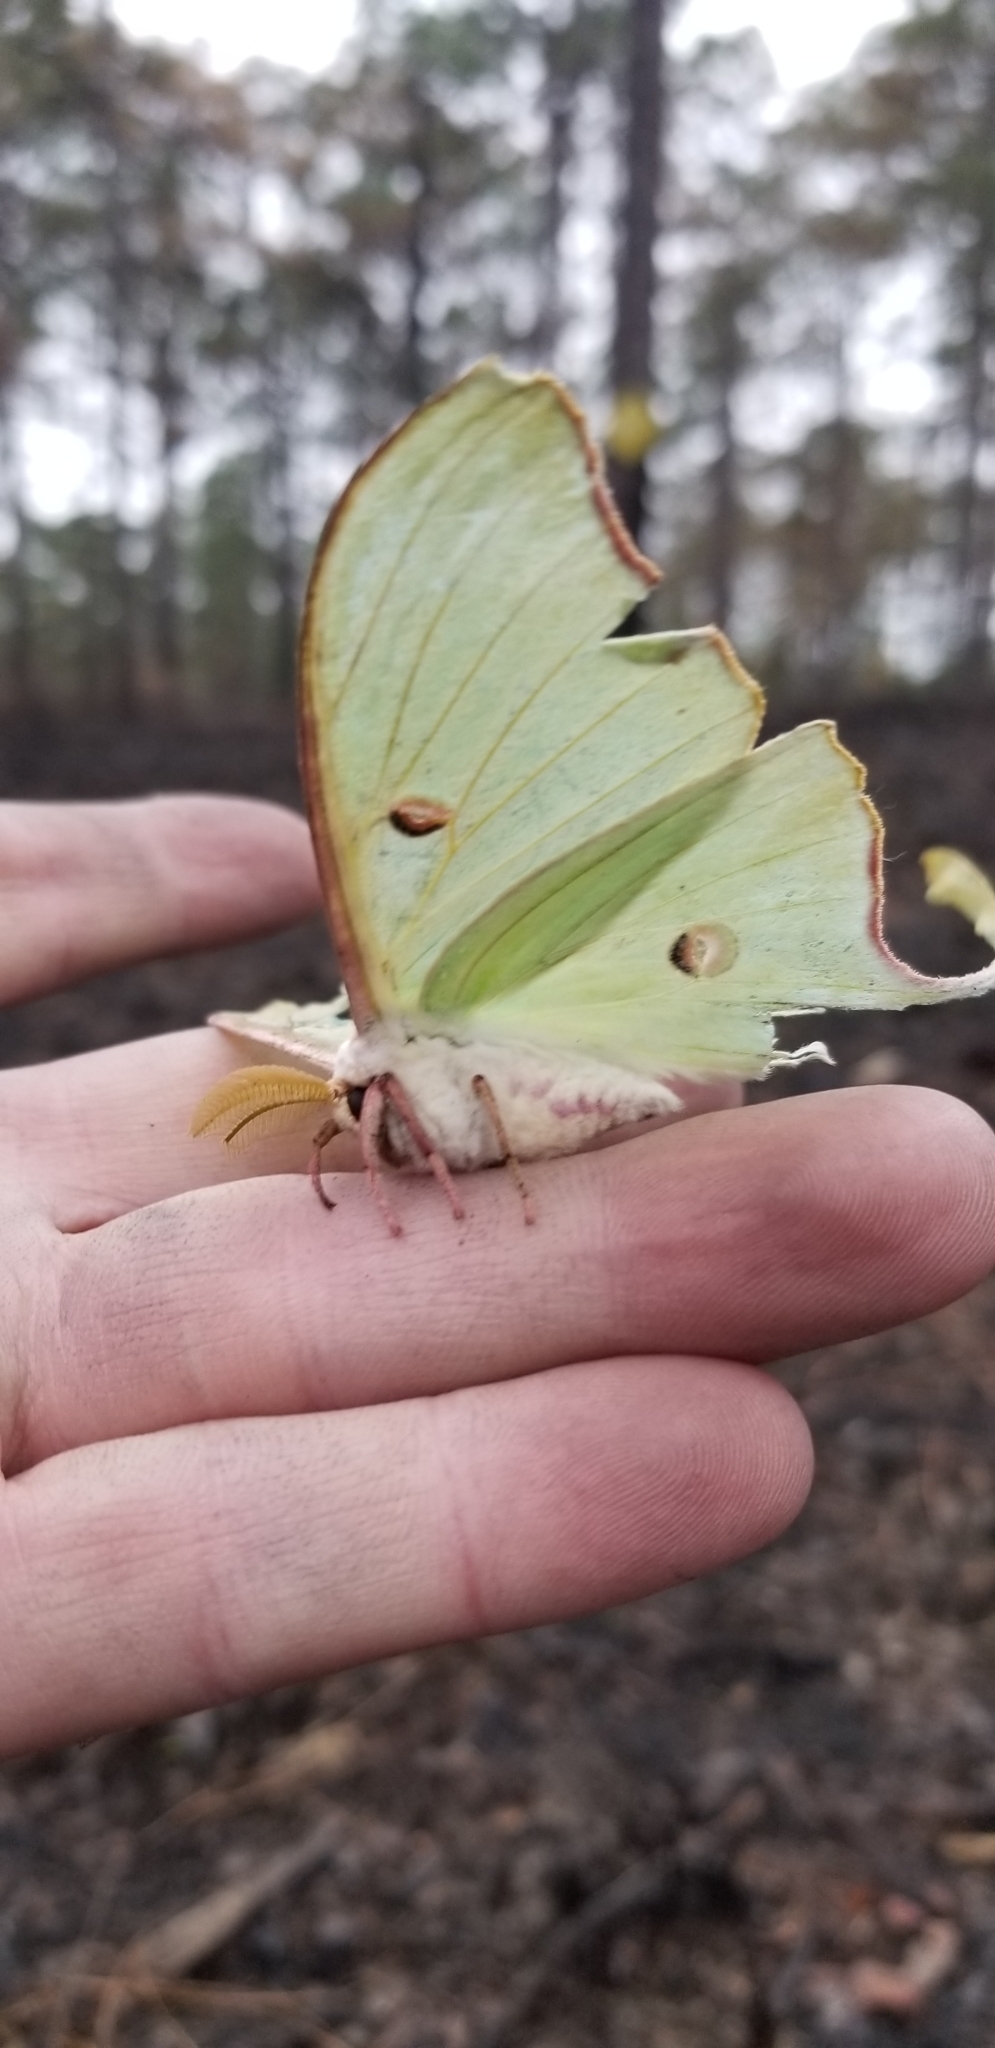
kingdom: Animalia
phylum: Arthropoda
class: Insecta
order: Lepidoptera
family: Saturniidae
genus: Actias
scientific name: Actias luna
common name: Luna moth
